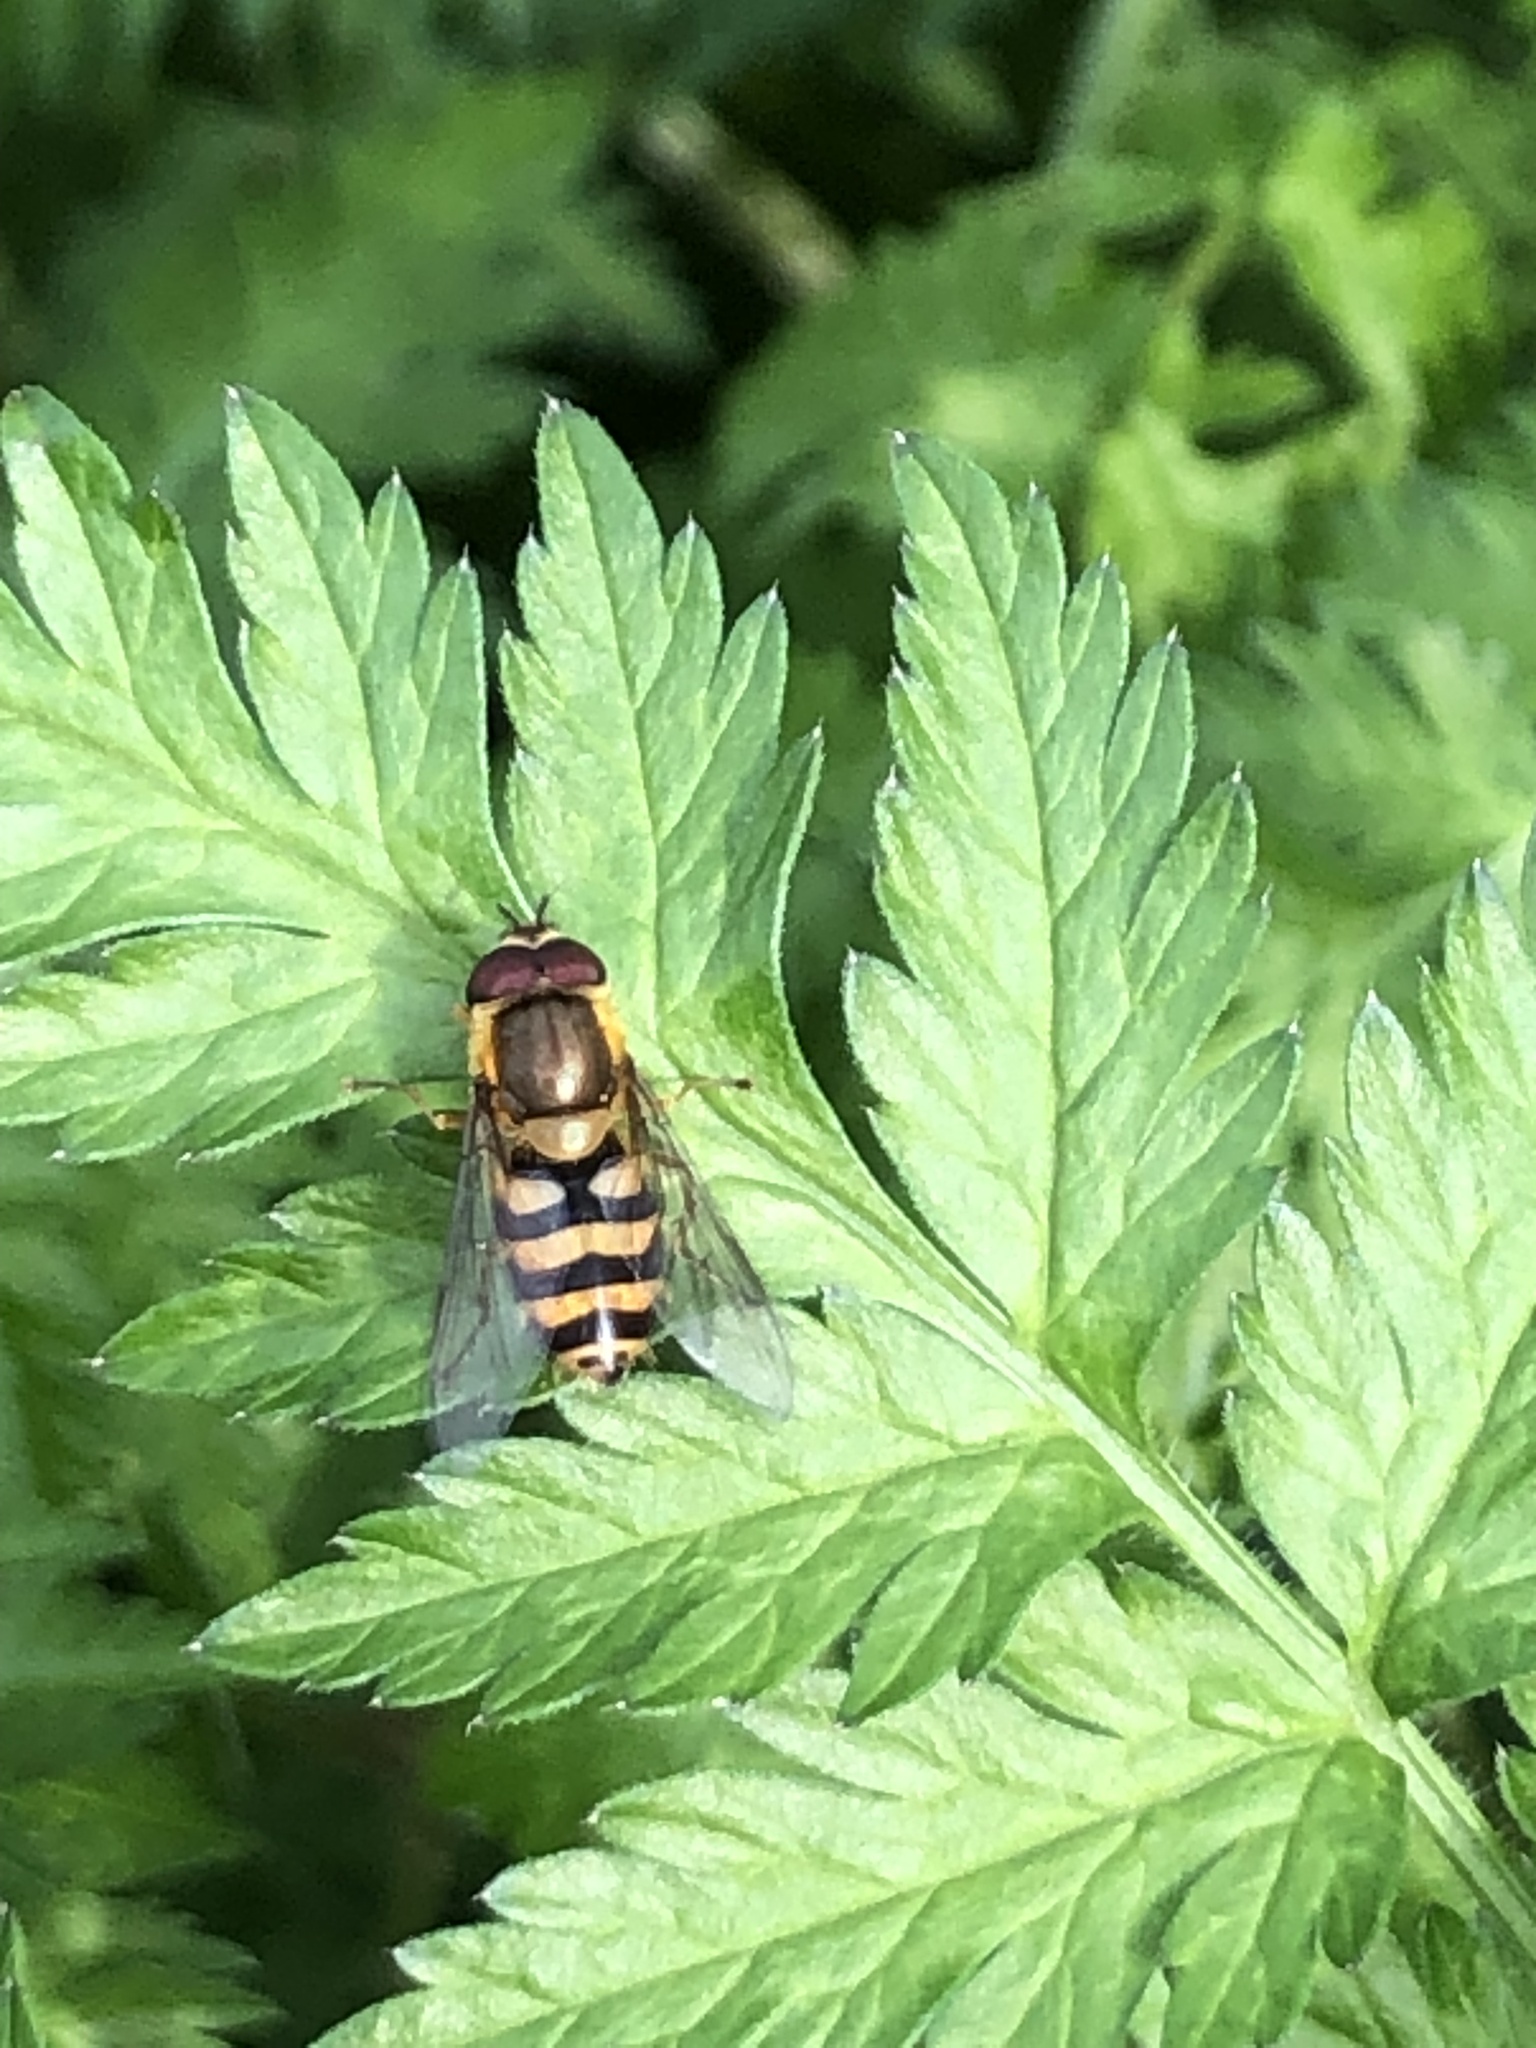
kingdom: Animalia
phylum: Arthropoda
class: Insecta
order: Diptera
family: Syrphidae
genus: Syrphus
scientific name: Syrphus
